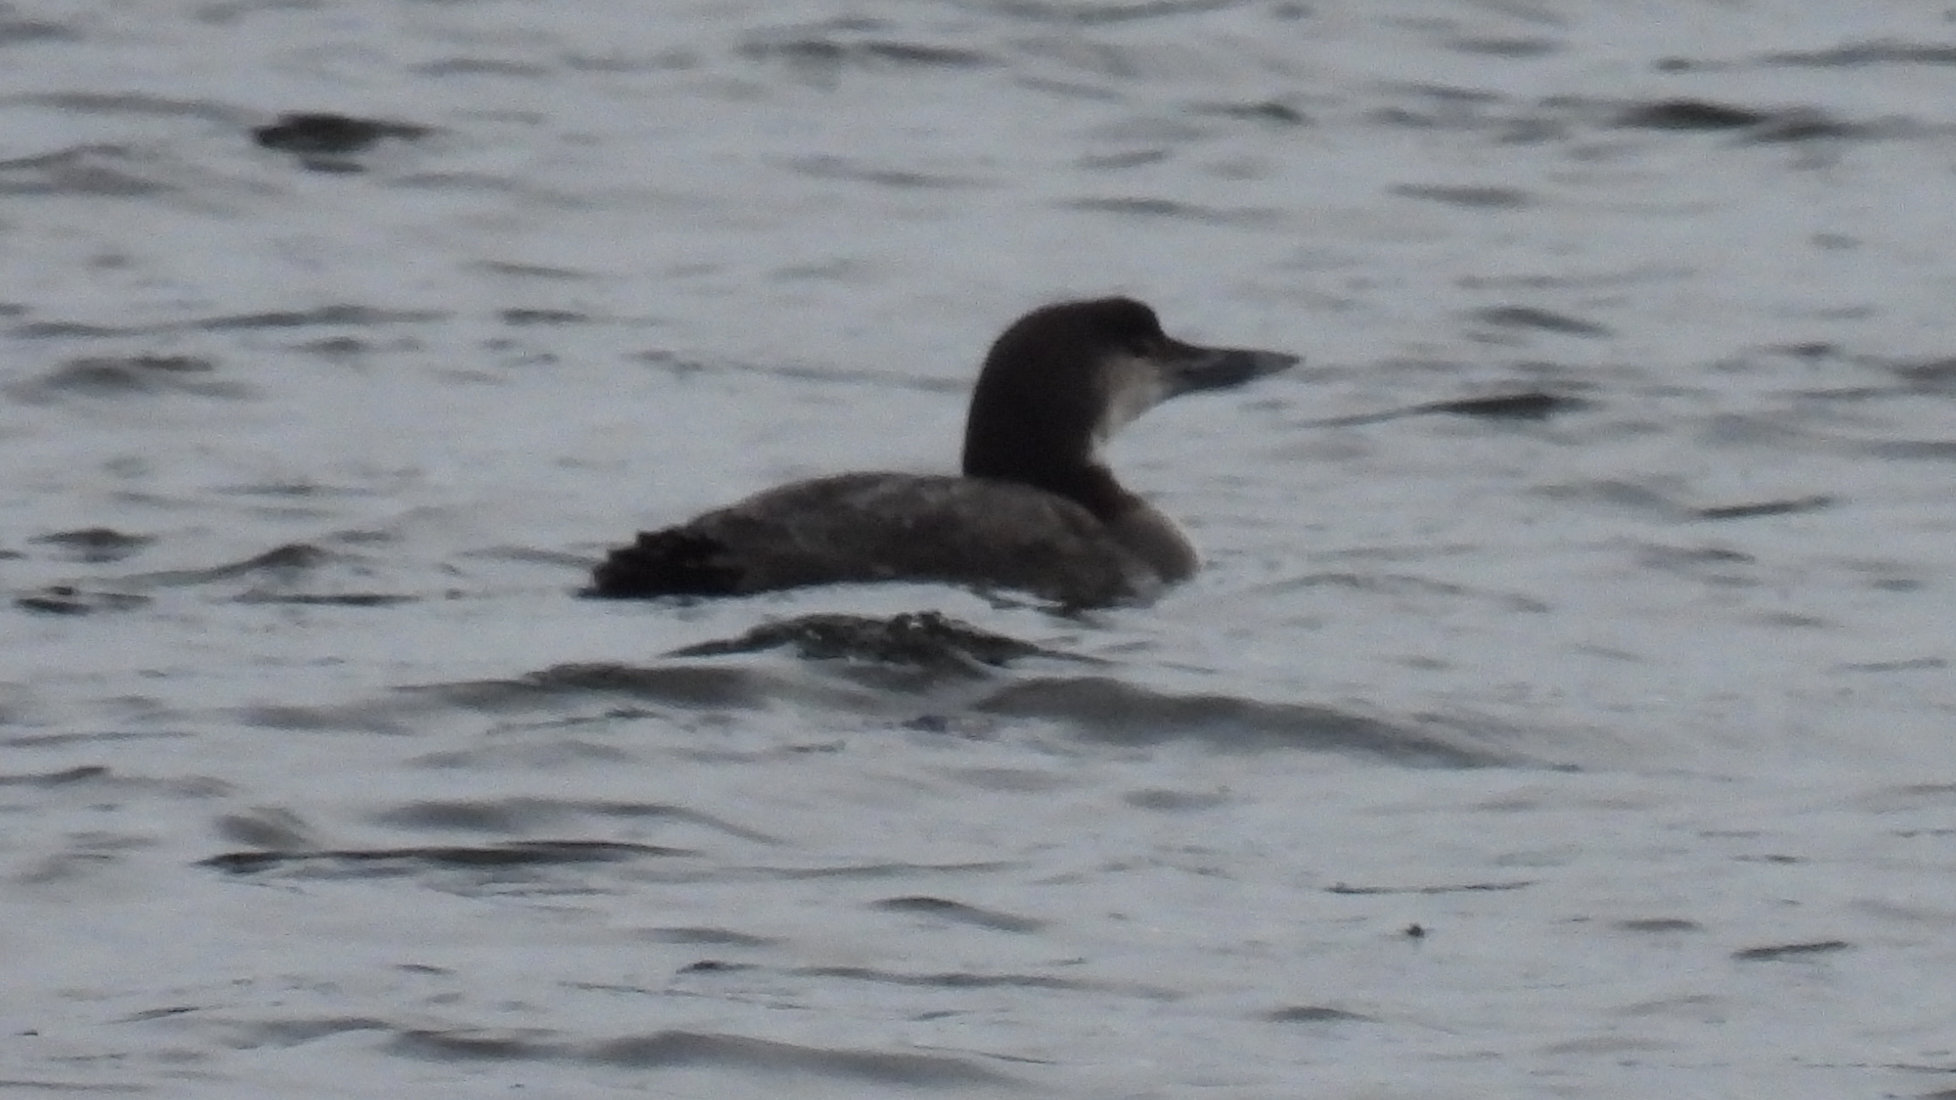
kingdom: Animalia
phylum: Chordata
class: Aves
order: Gaviiformes
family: Gaviidae
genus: Gavia
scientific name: Gavia immer
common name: Common loon
